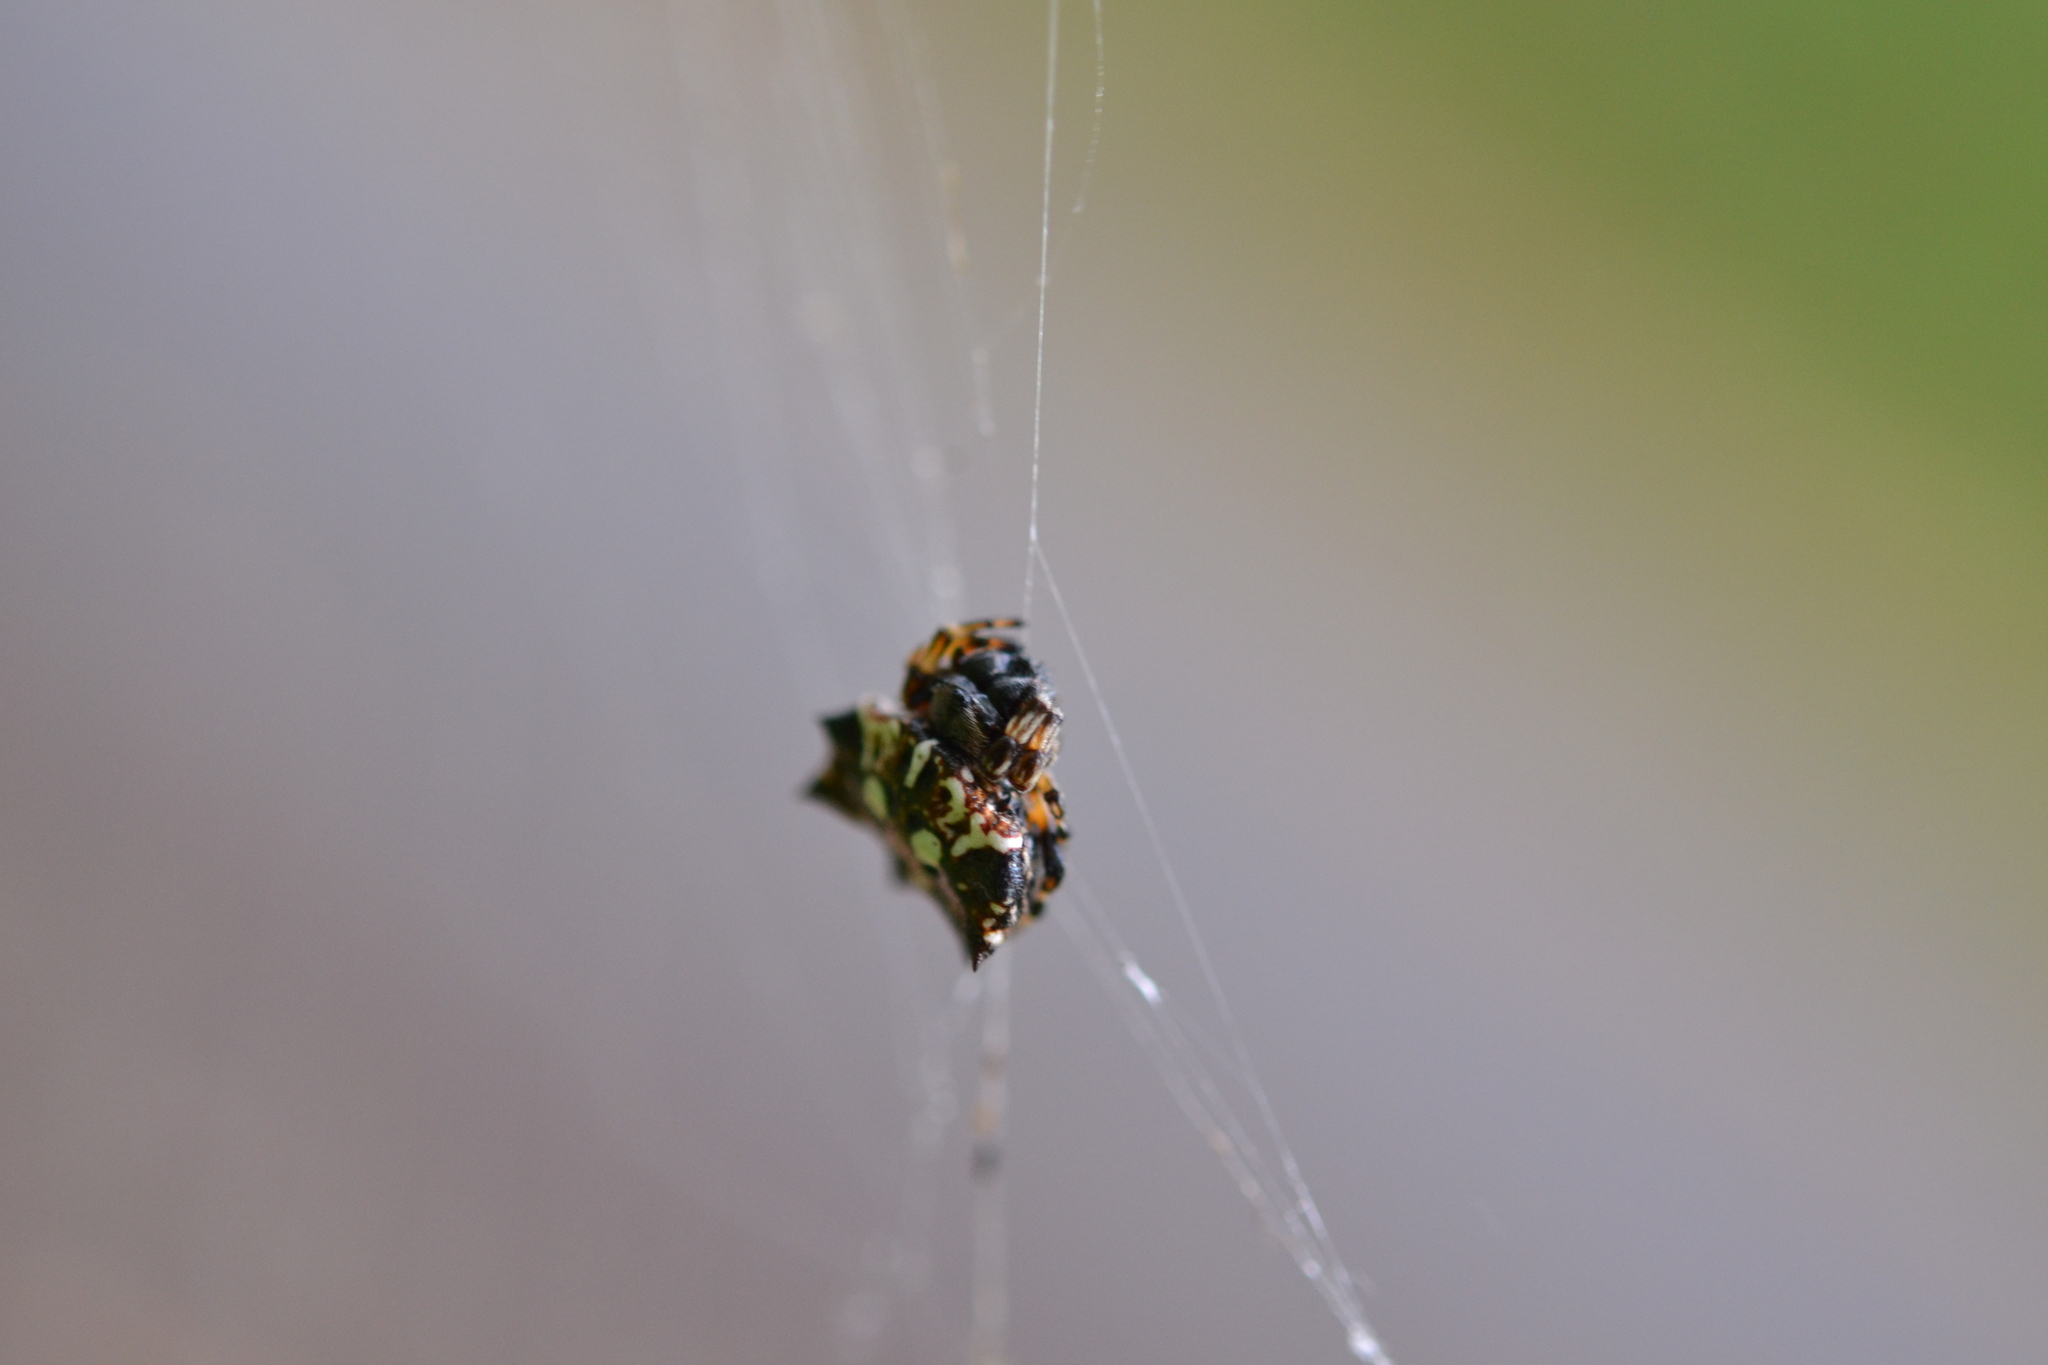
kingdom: Animalia
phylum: Arthropoda
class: Arachnida
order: Araneae
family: Araneidae
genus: Thelacantha
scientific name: Thelacantha brevispina
